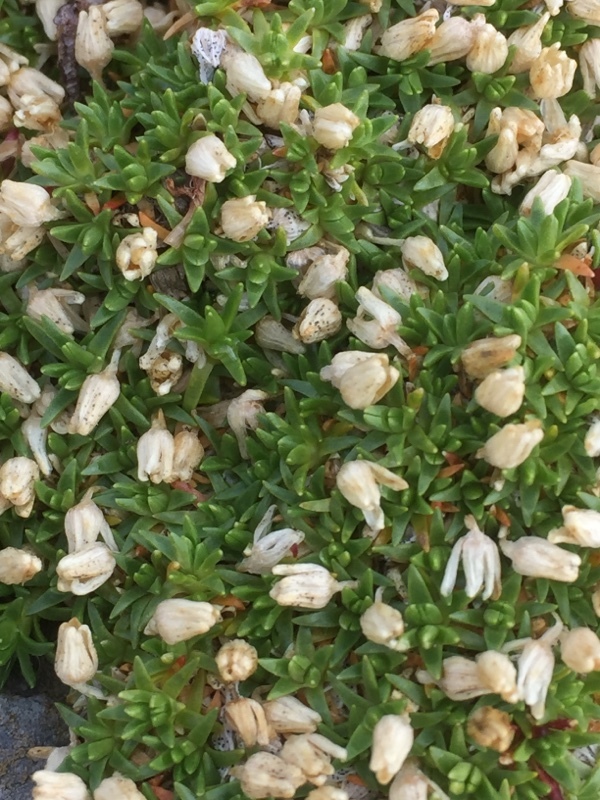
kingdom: Plantae
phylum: Tracheophyta
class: Magnoliopsida
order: Caryophyllales
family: Caryophyllaceae
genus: Silene
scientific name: Silene acaulis
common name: Moss campion
